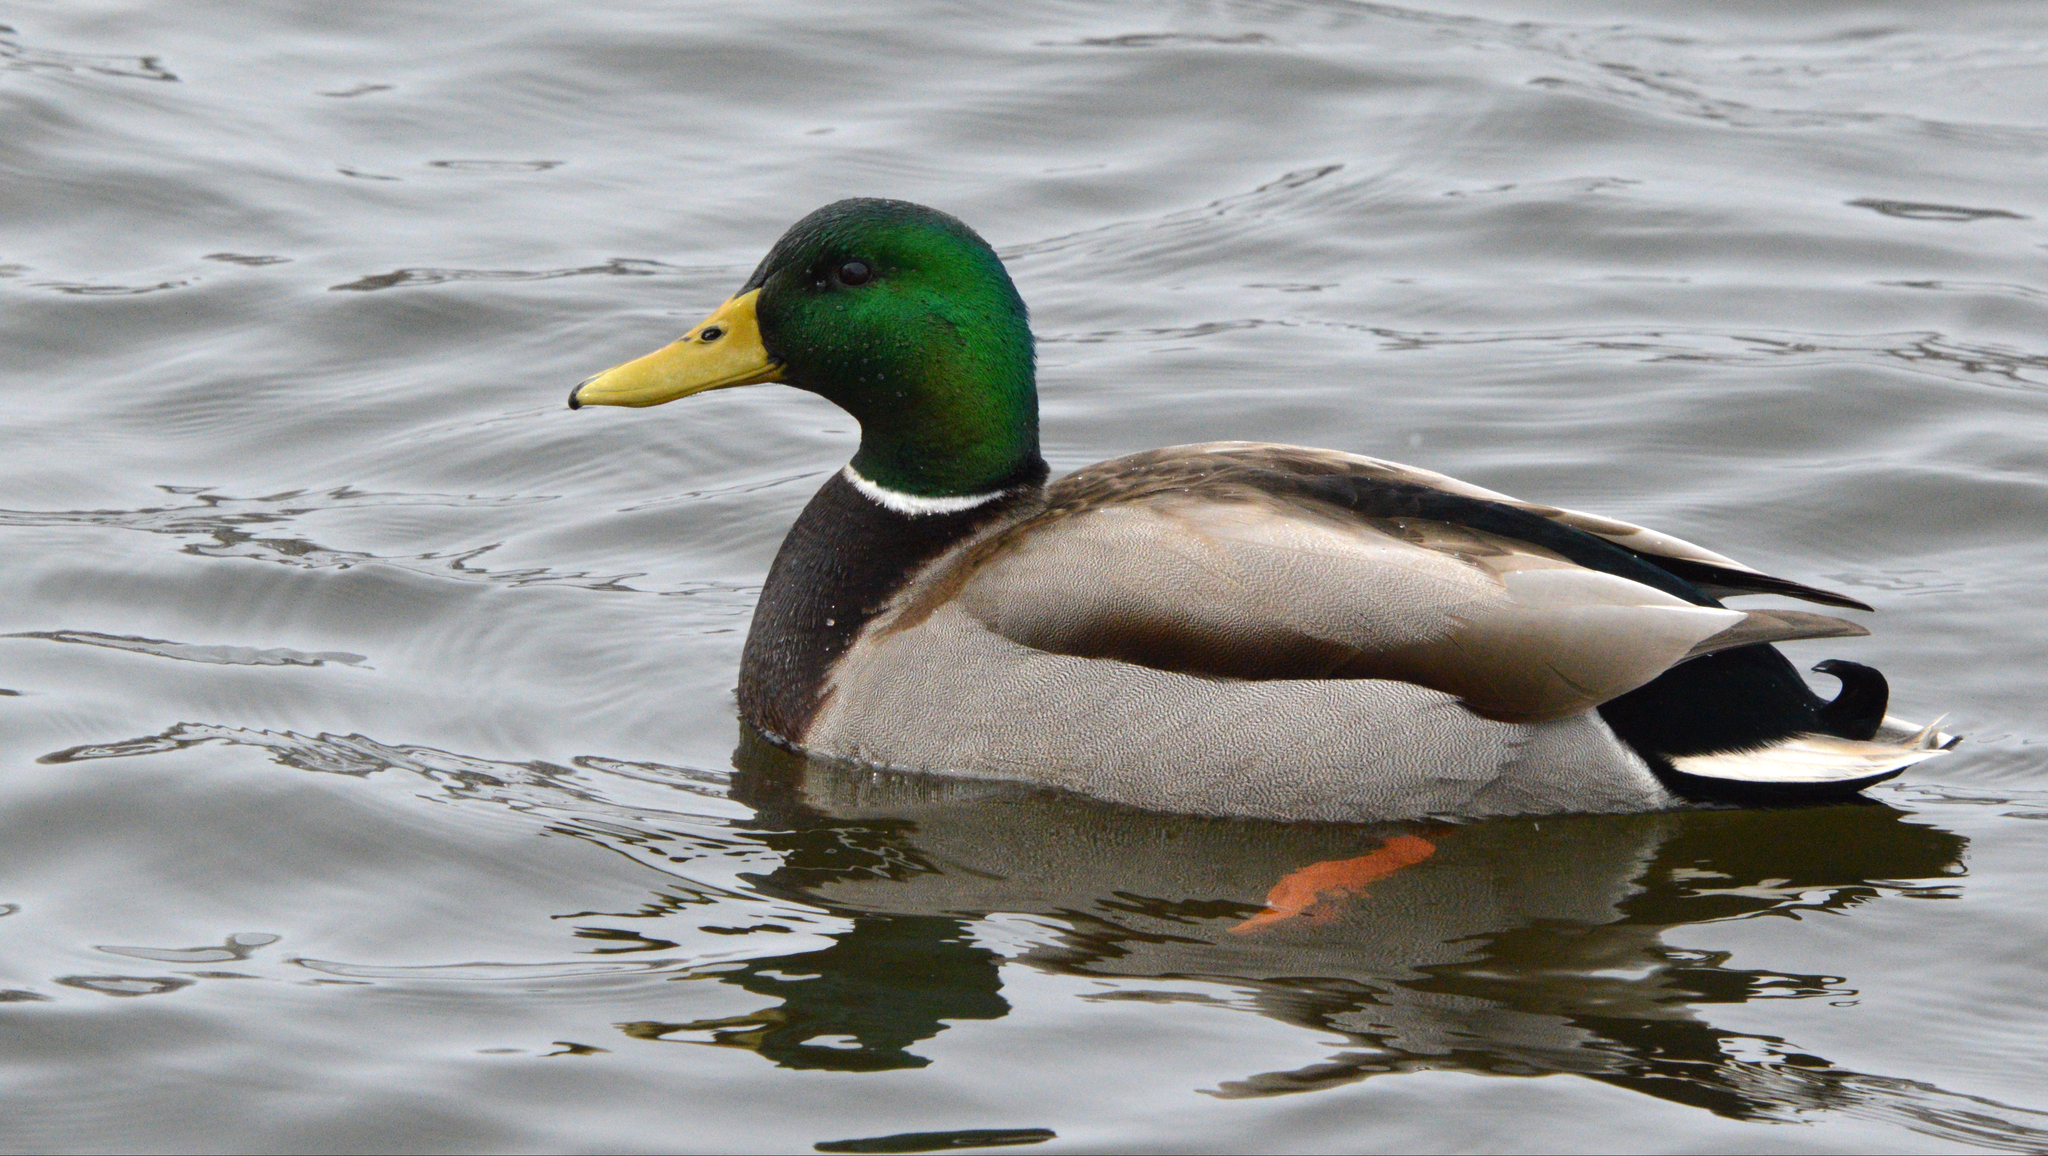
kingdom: Animalia
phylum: Chordata
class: Aves
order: Anseriformes
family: Anatidae
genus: Anas
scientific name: Anas platyrhynchos
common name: Mallard
